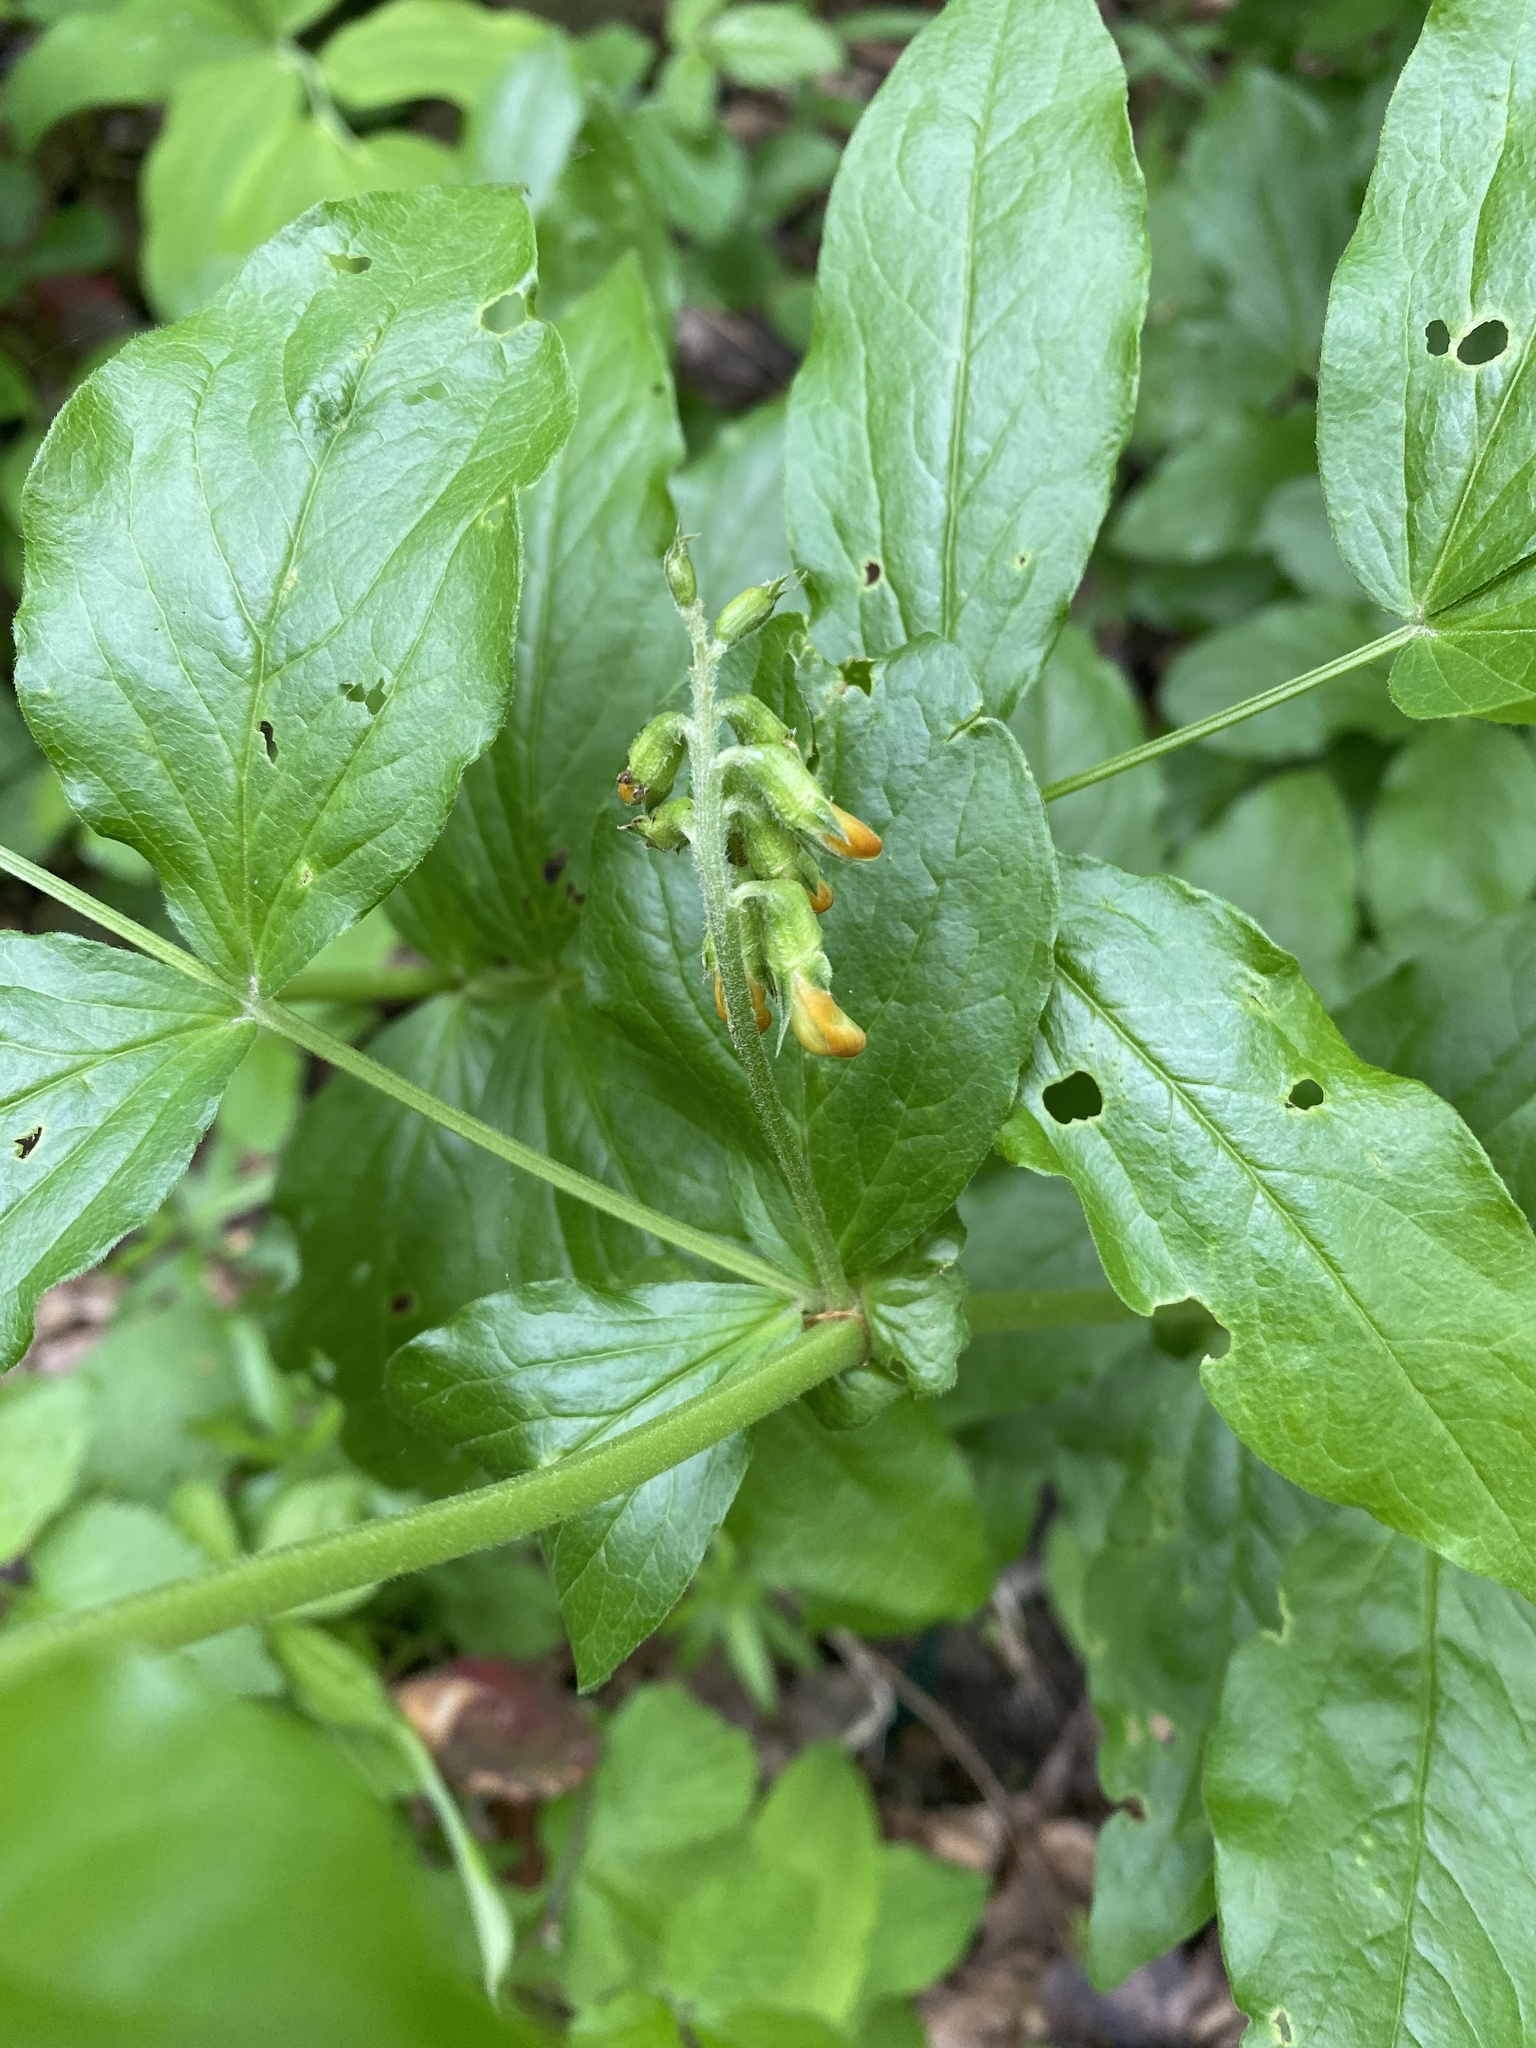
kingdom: Plantae
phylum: Tracheophyta
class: Magnoliopsida
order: Fabales
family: Fabaceae
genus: Lathyrus
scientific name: Lathyrus aureus
